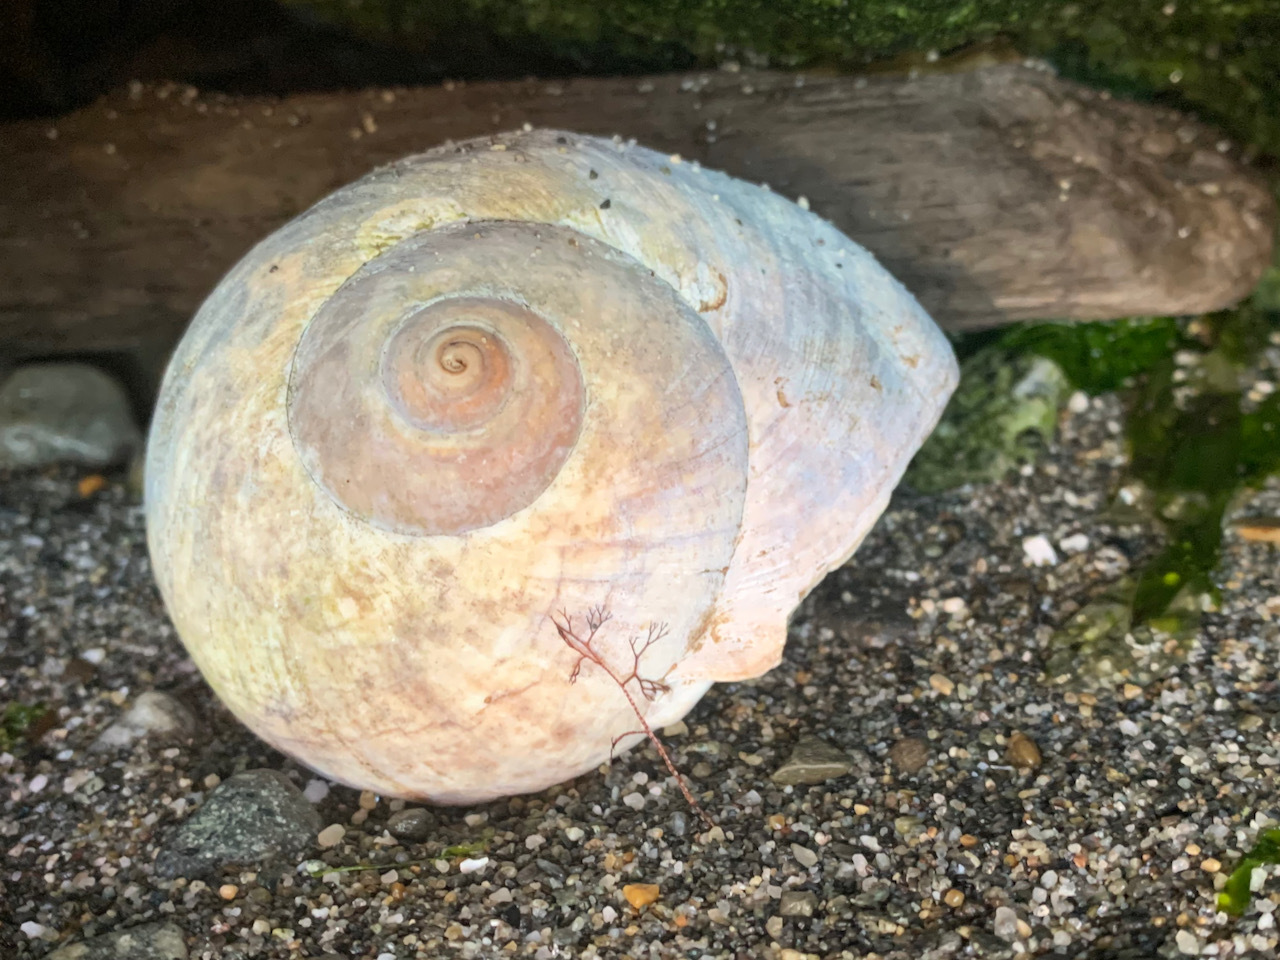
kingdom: Animalia
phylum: Mollusca
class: Gastropoda
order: Littorinimorpha
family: Naticidae
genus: Neverita
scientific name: Neverita lewisii
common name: Lewis' moonsnail
